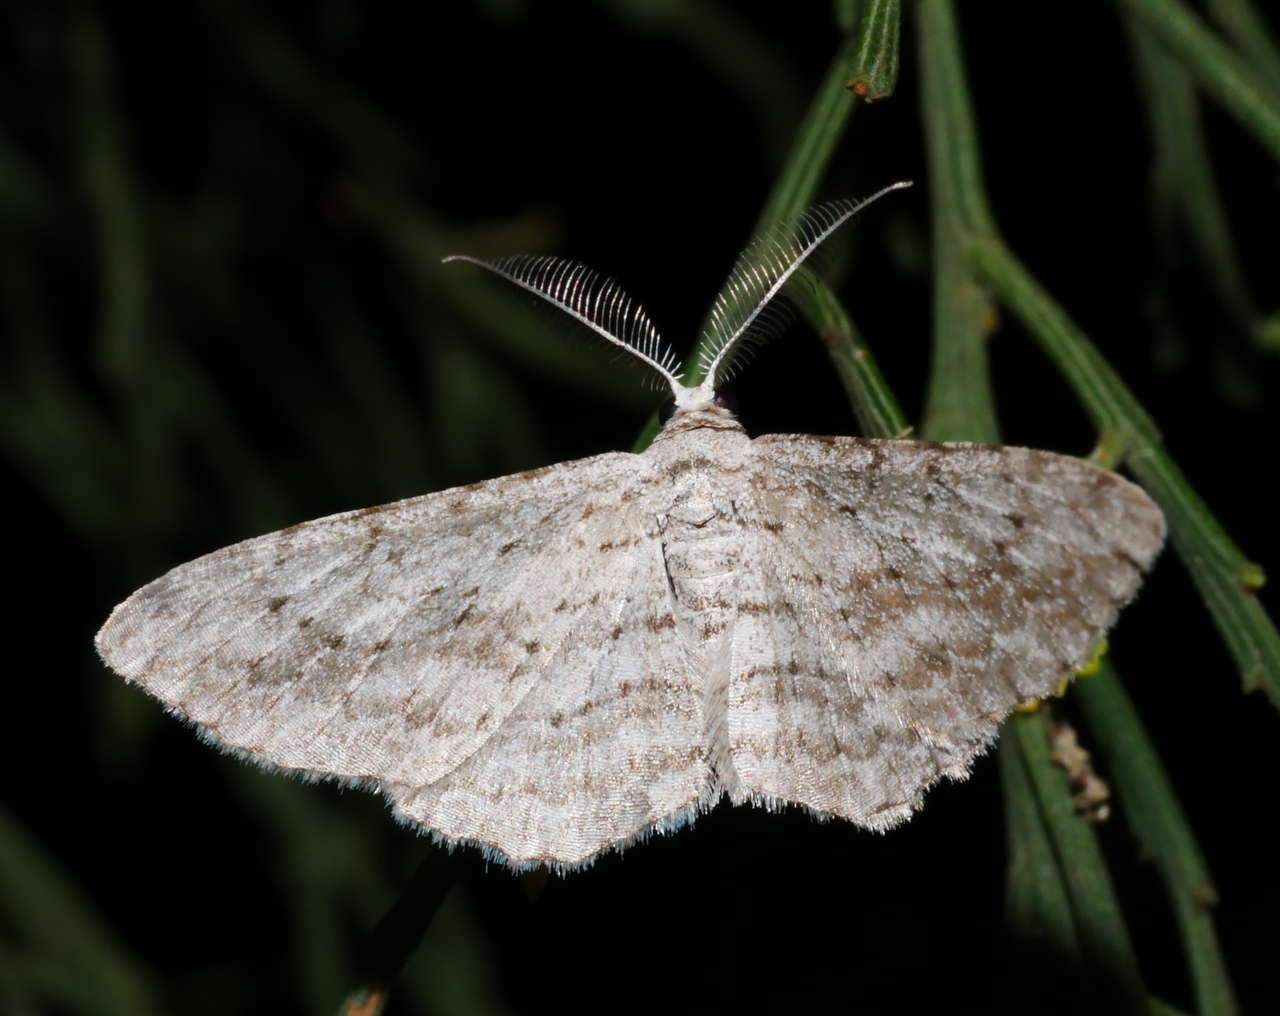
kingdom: Animalia
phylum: Arthropoda
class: Insecta
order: Lepidoptera
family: Geometridae
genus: Phelotis
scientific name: Phelotis cognata
